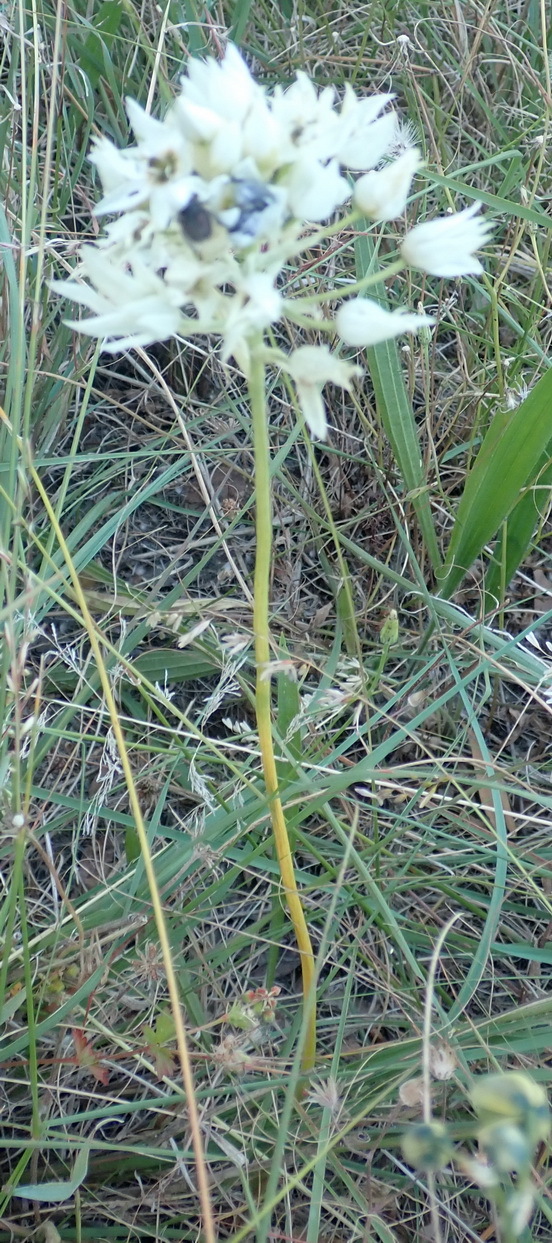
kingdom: Plantae
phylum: Tracheophyta
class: Liliopsida
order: Asparagales
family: Asparagaceae
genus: Ornithogalum
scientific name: Ornithogalum thyrsoides
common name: Chincherinchee
